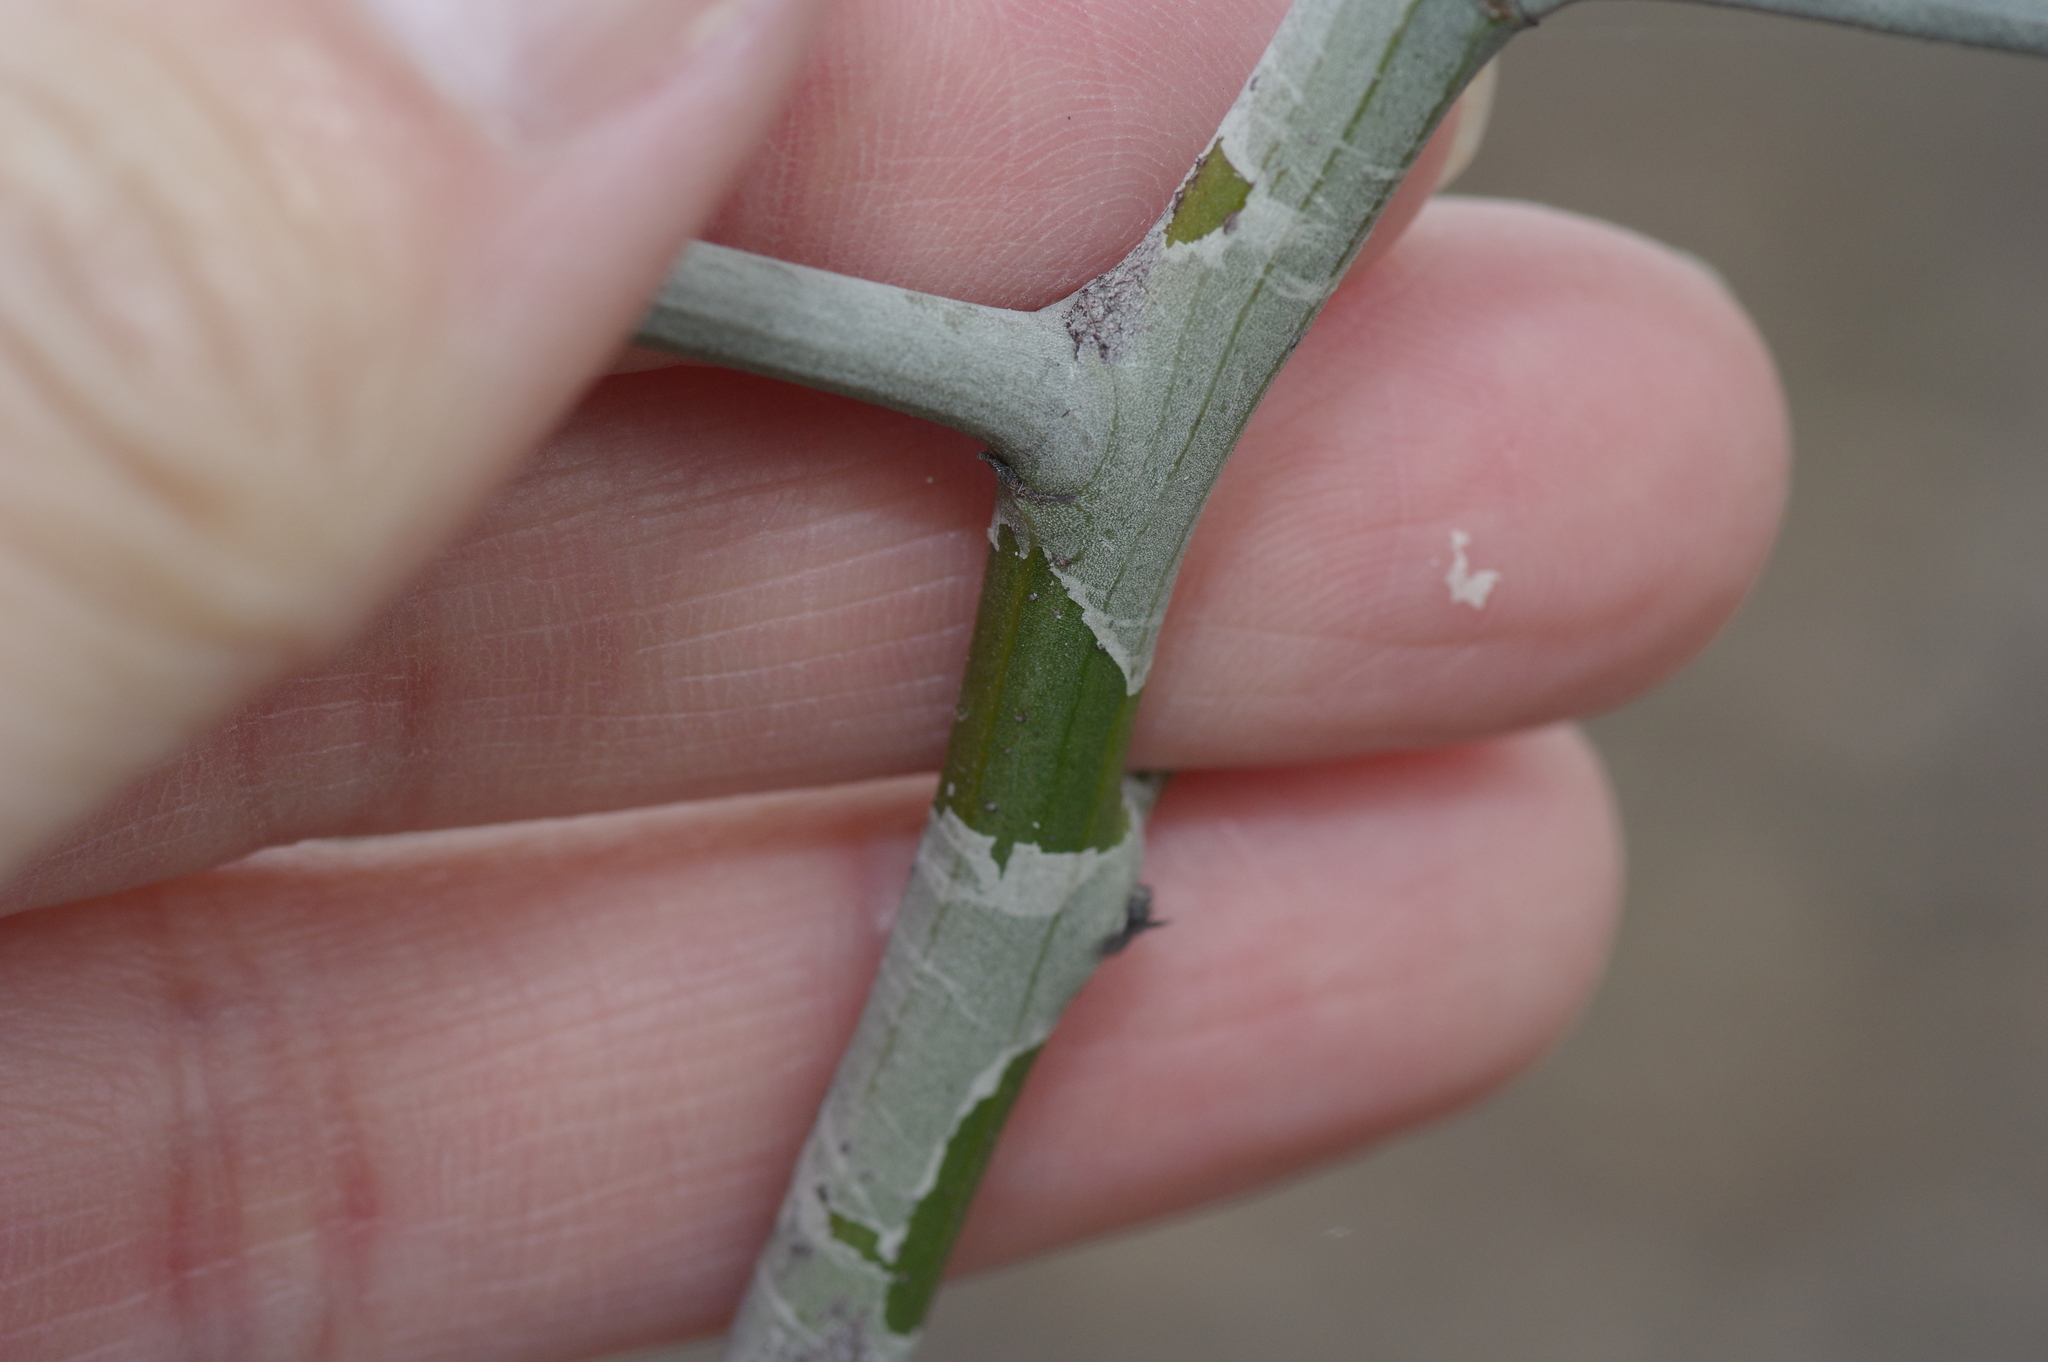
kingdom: Plantae
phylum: Tracheophyta
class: Magnoliopsida
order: Rosales
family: Rhamnaceae
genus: Sarcomphalus
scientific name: Sarcomphalus obtusifolius
